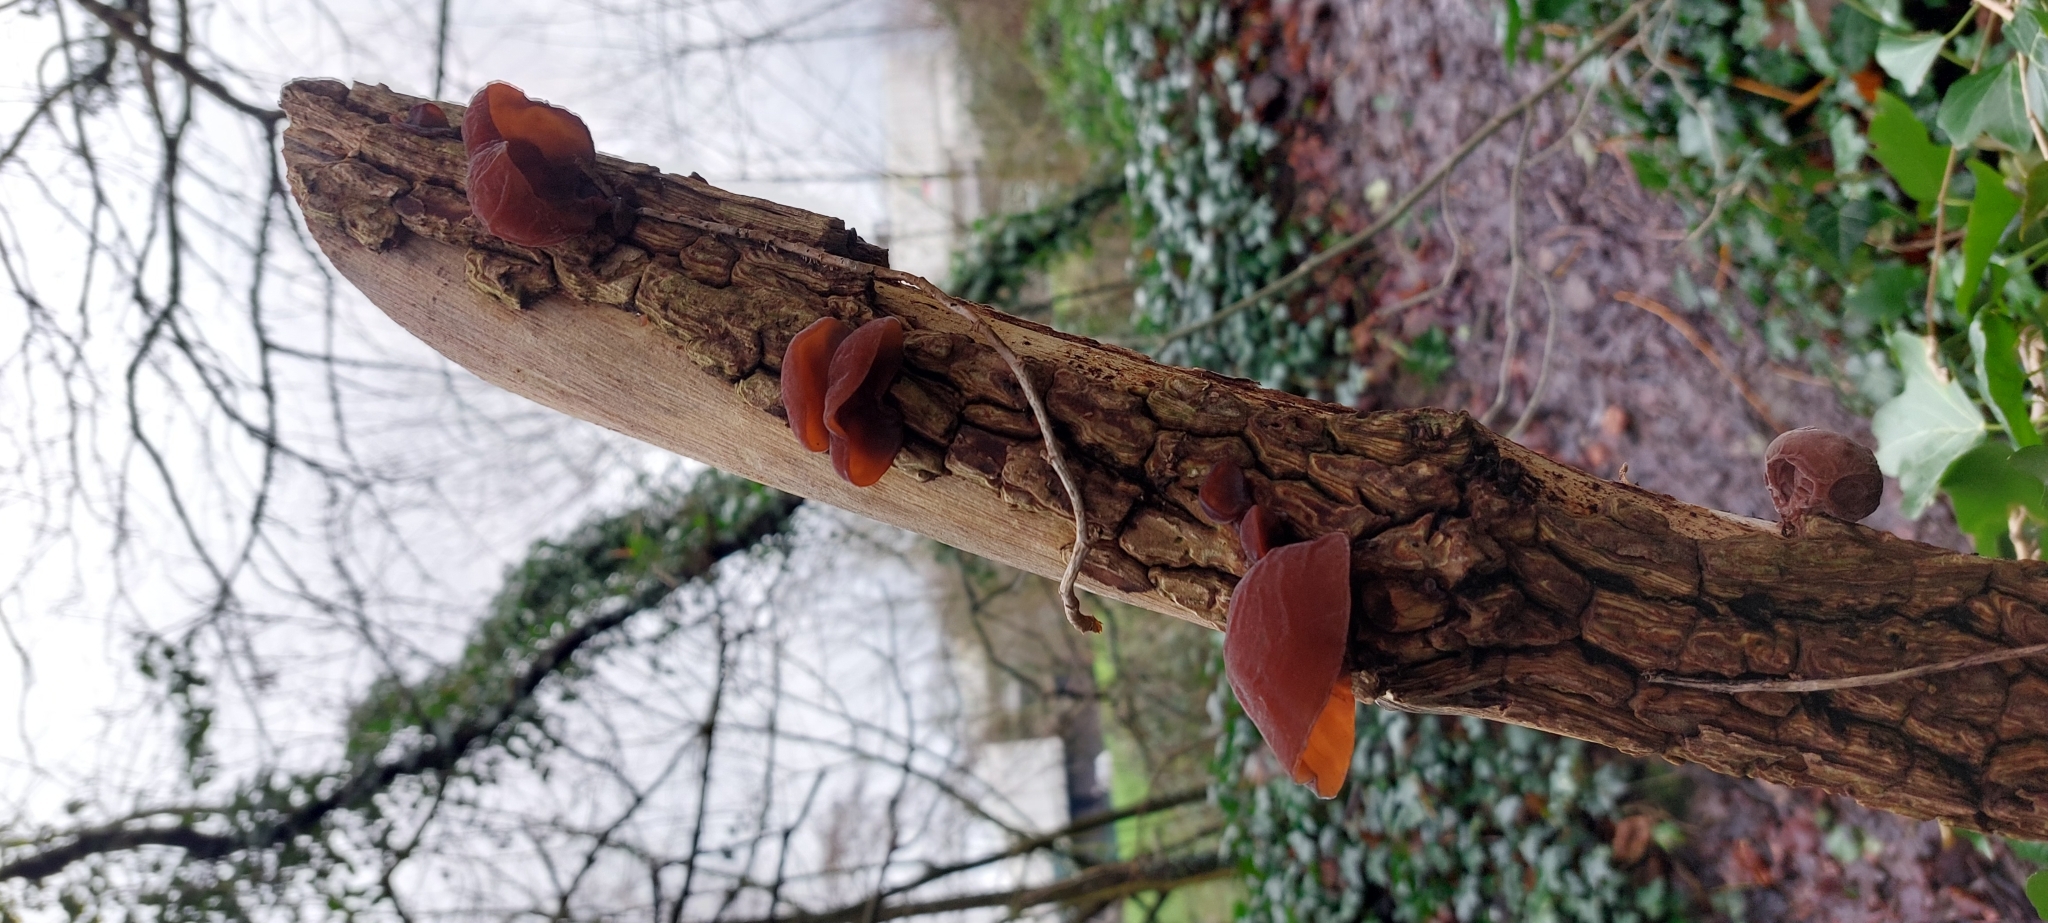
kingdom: Fungi
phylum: Basidiomycota
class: Agaricomycetes
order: Auriculariales
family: Auriculariaceae
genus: Auricularia
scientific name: Auricularia auricula-judae
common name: Jelly ear
